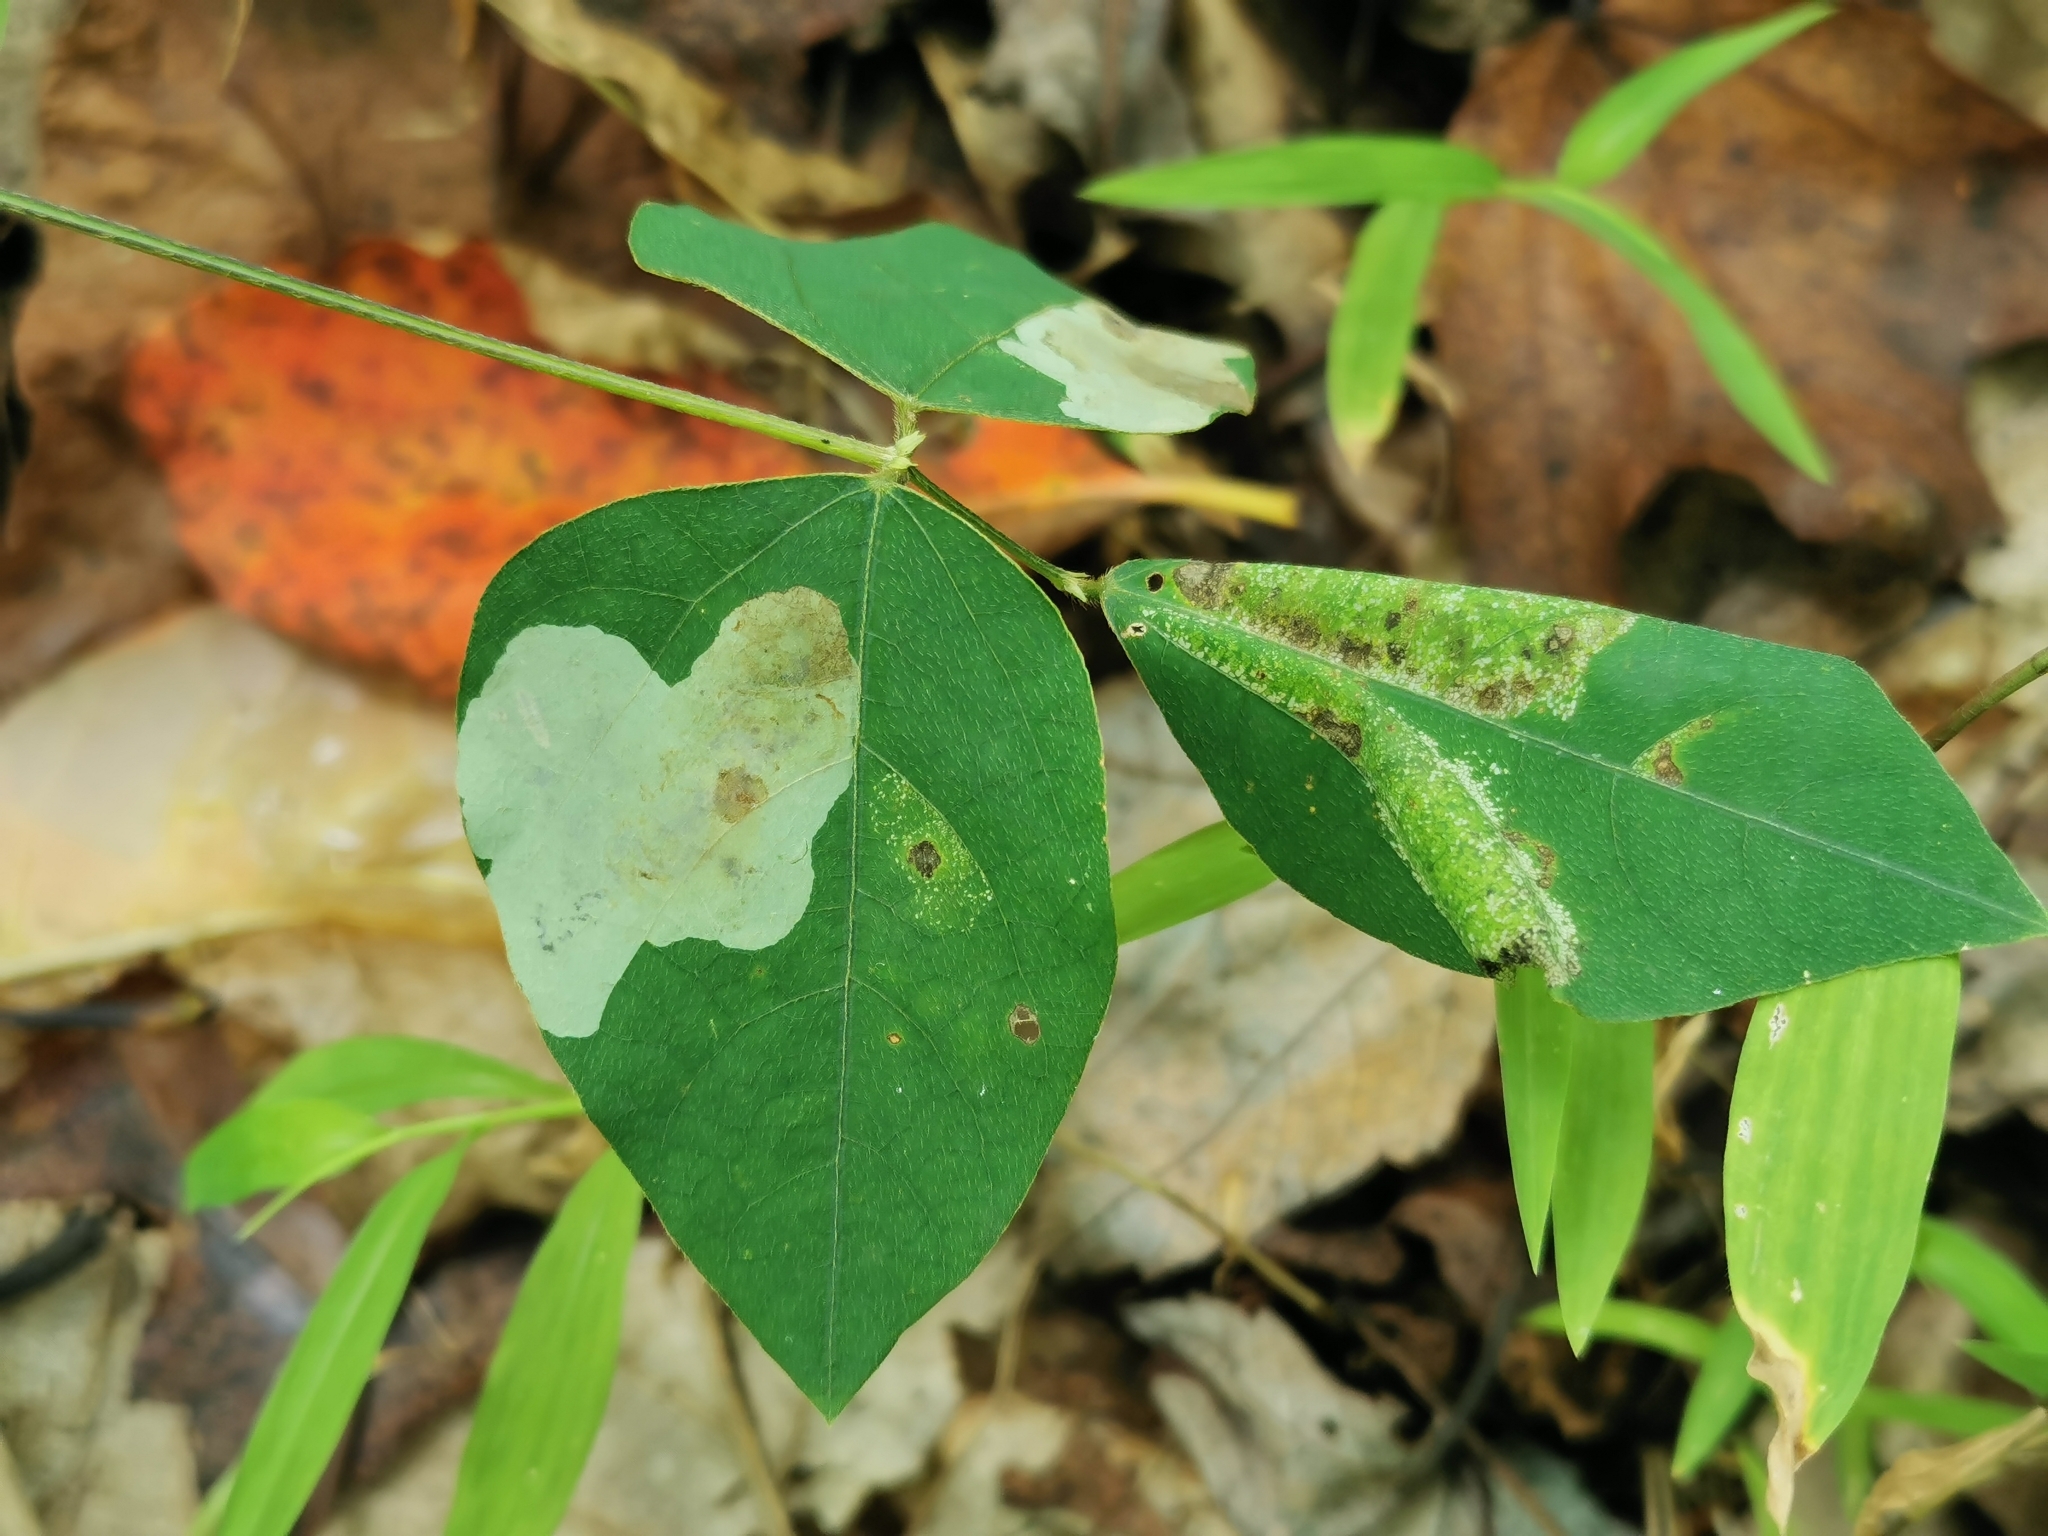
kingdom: Animalia
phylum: Arthropoda
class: Insecta
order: Lepidoptera
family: Gracillariidae
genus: Leucanthiza
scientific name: Leucanthiza amphicarpeaefoliella
